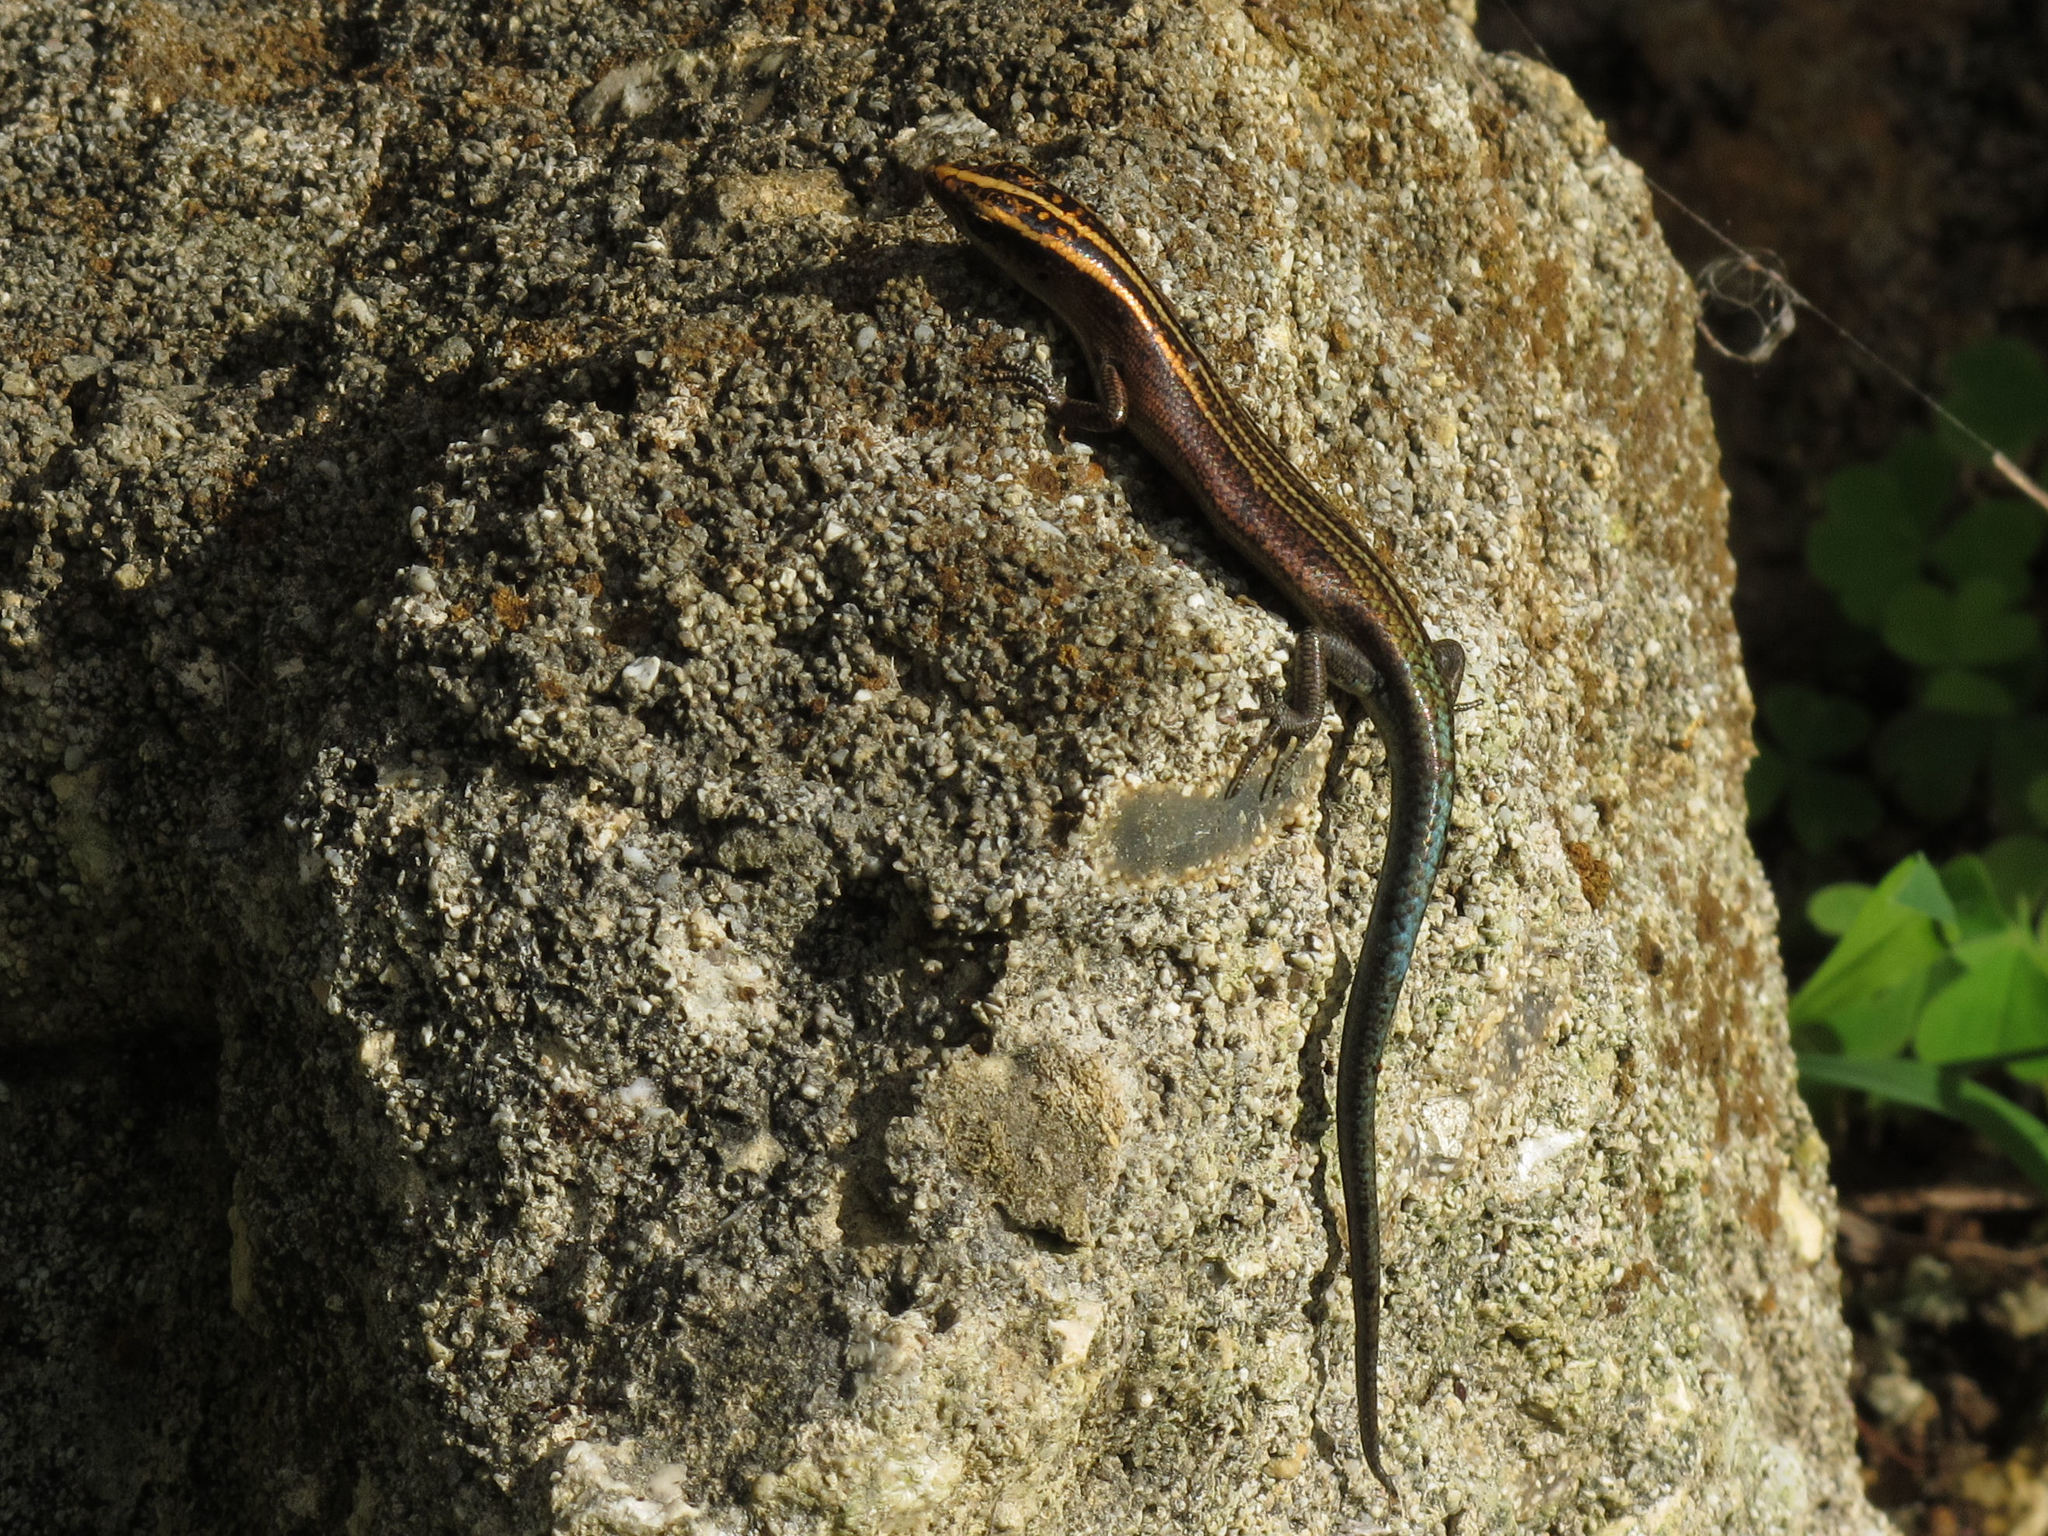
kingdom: Animalia
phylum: Chordata
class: Squamata
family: Scincidae
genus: Emoia
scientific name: Emoia impar
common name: Azure-tailed skink
